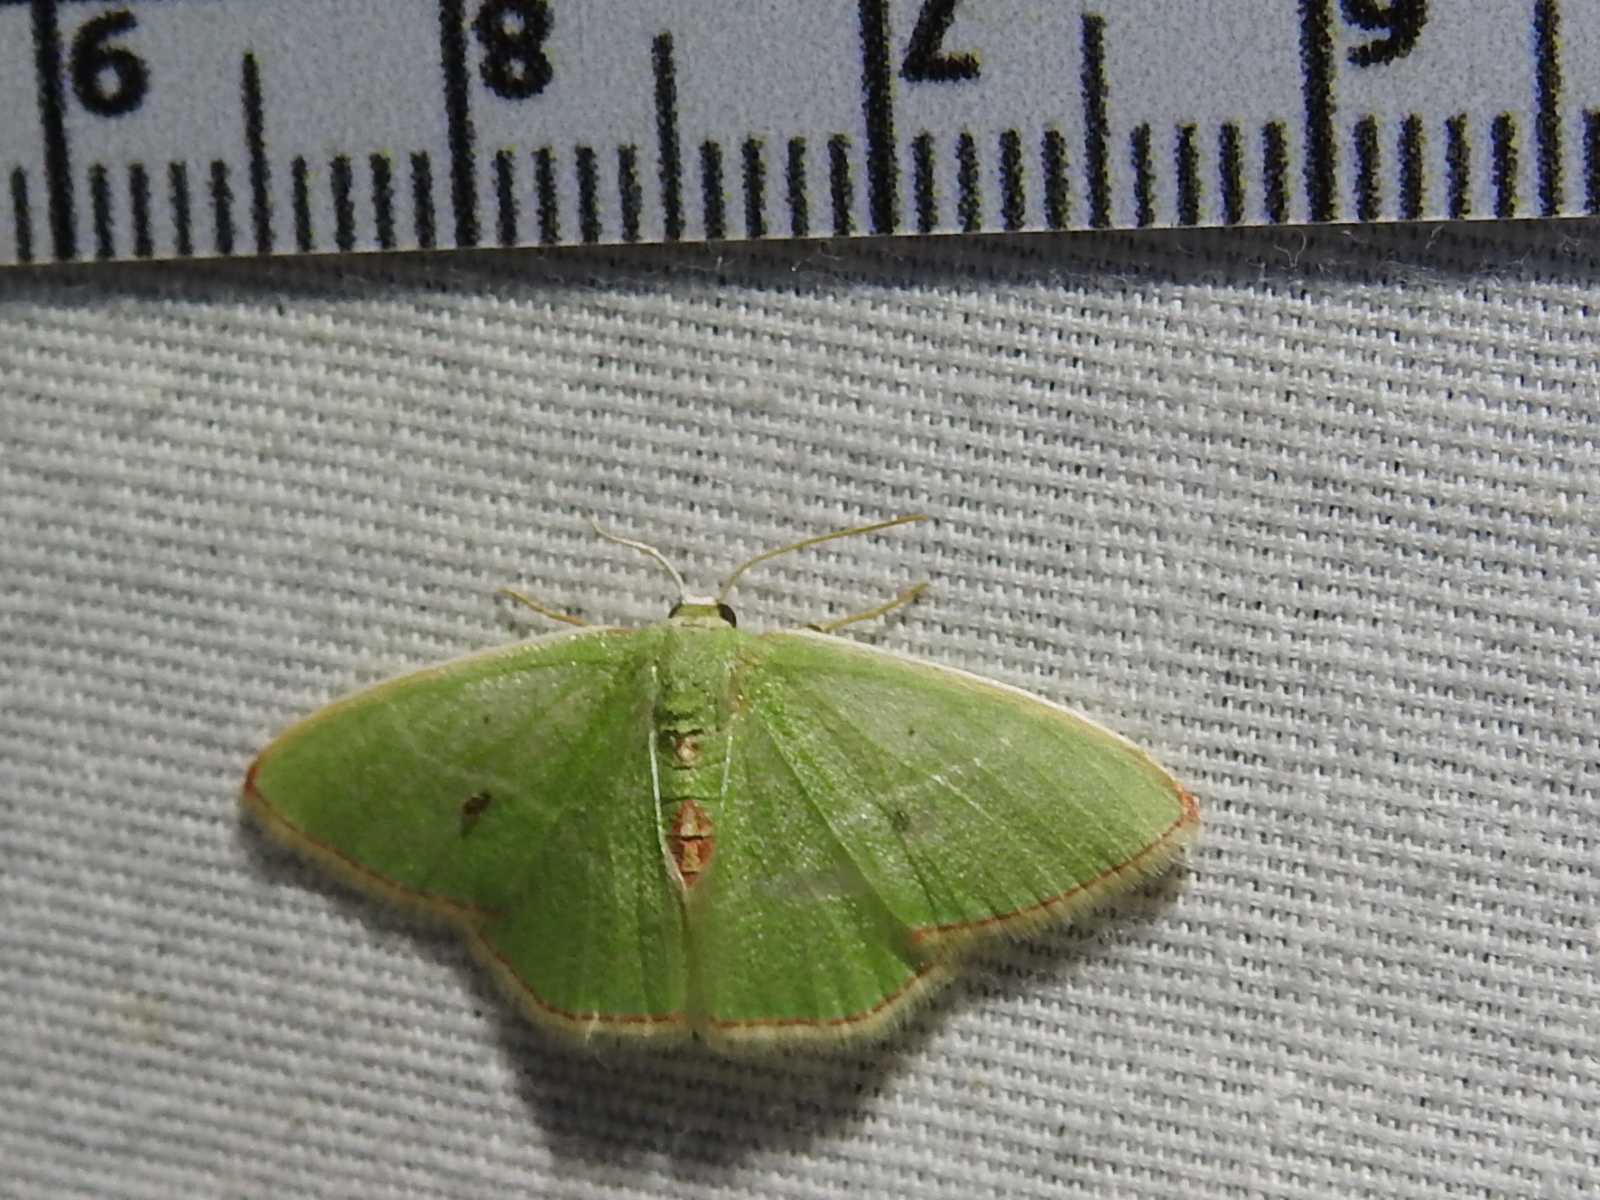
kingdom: Animalia
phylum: Arthropoda
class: Insecta
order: Lepidoptera
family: Geometridae
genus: Nemoria
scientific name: Nemoria lixaria
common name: Red-bordered emerald
